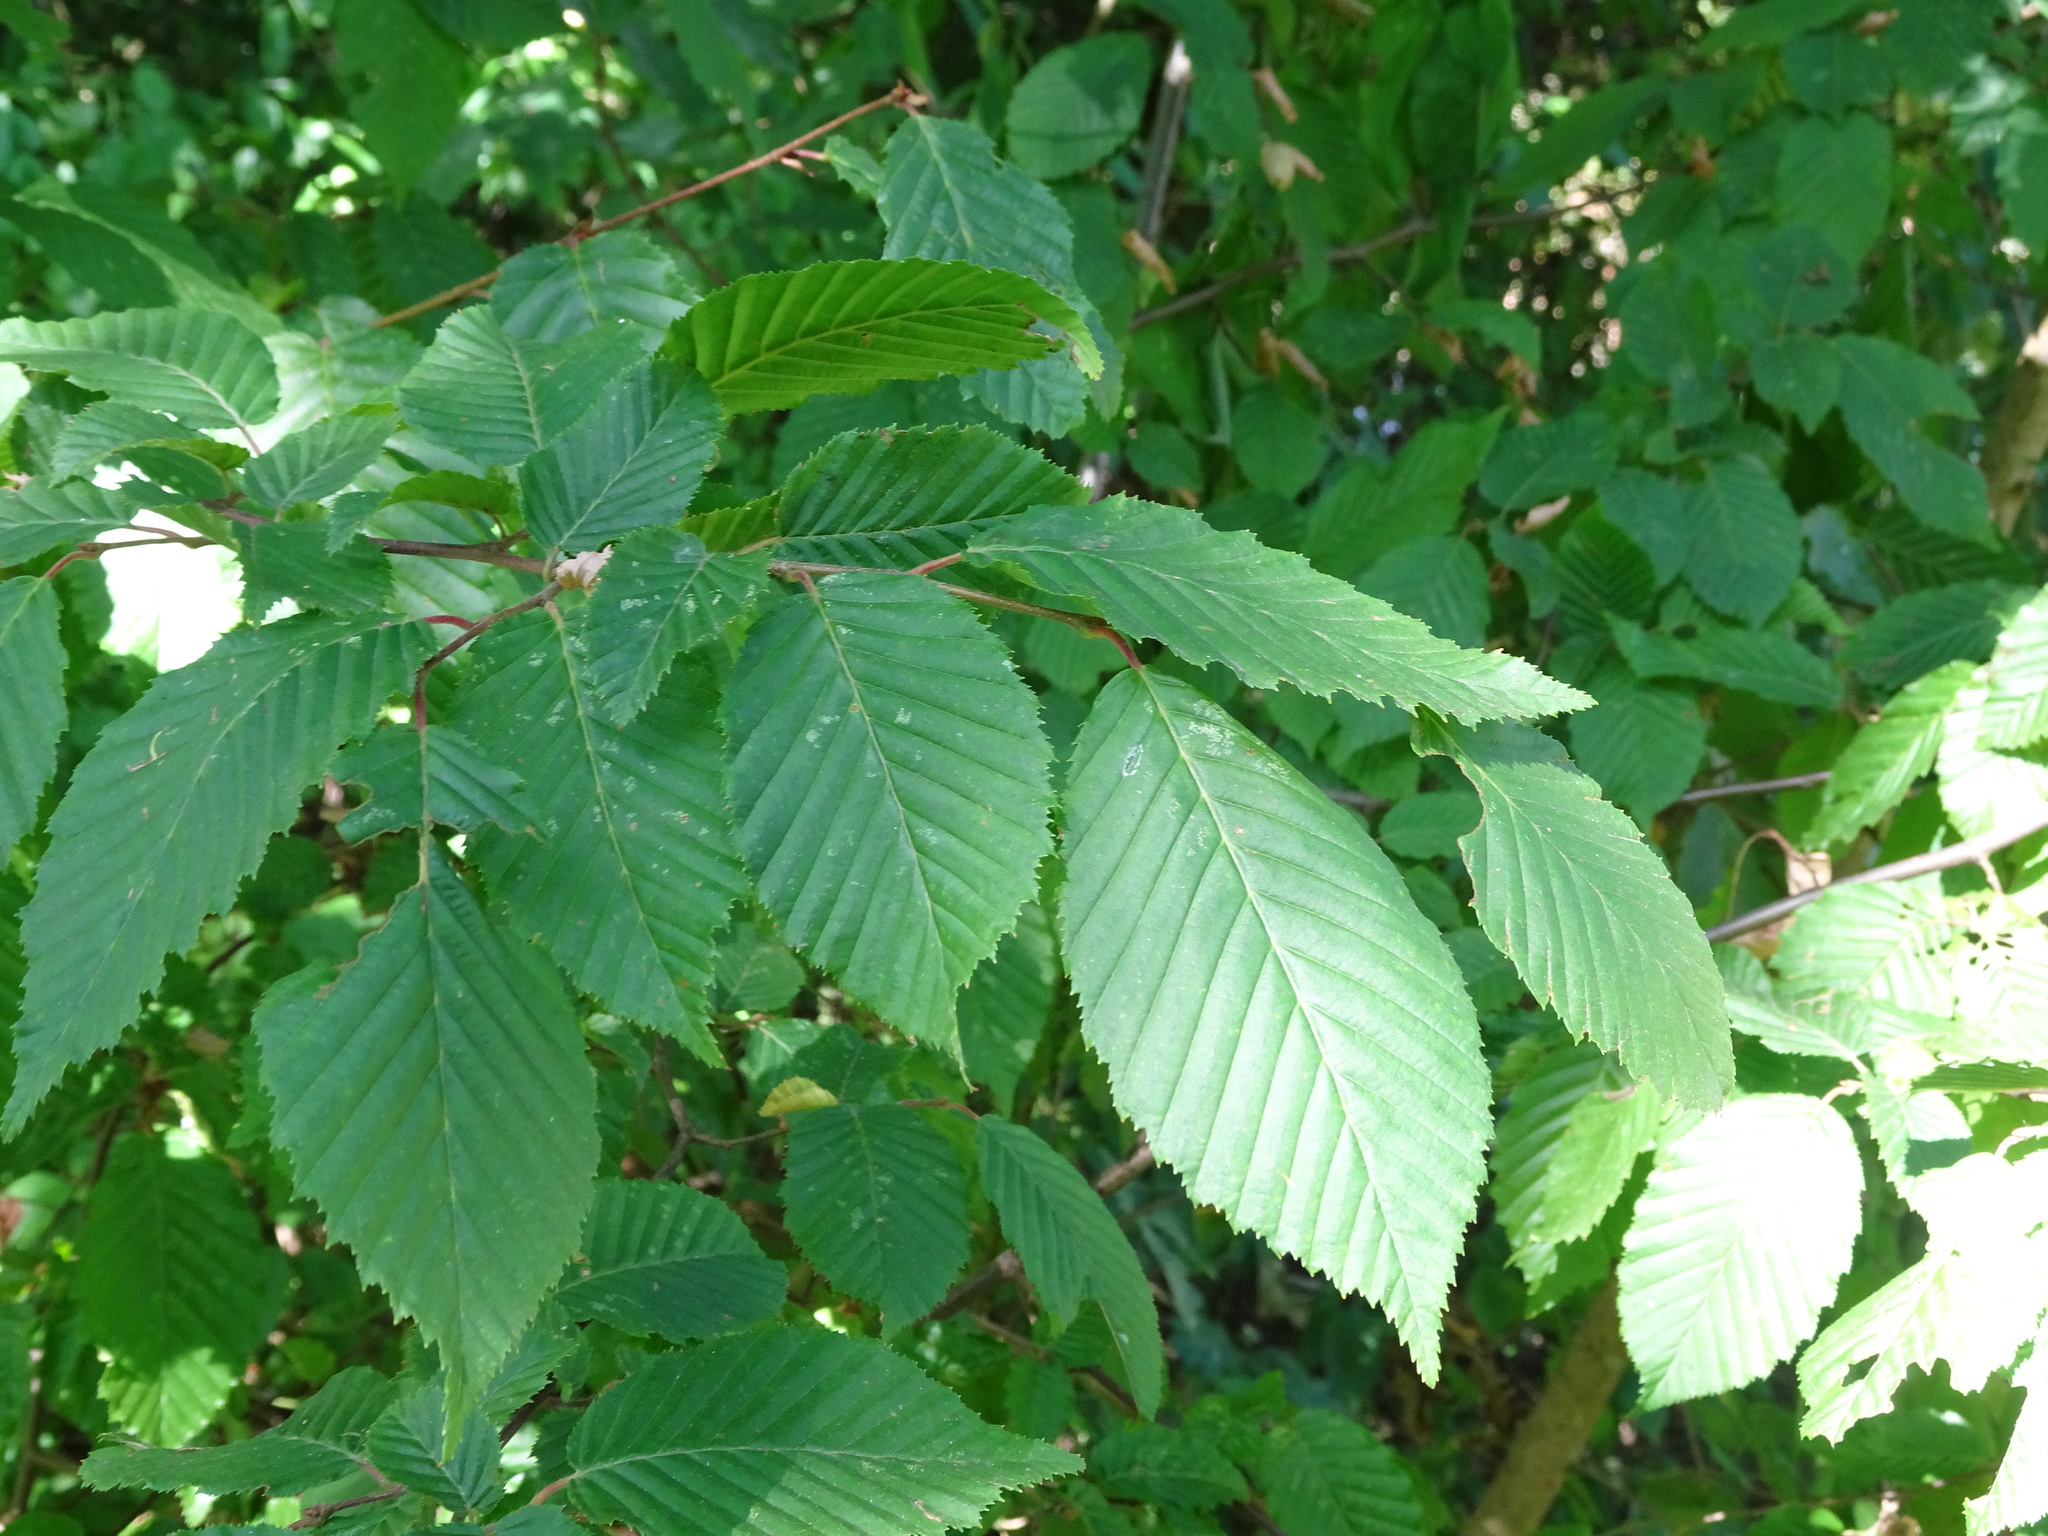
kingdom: Plantae
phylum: Tracheophyta
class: Magnoliopsida
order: Fagales
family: Betulaceae
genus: Carpinus
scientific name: Carpinus betulus
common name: Hornbeam
